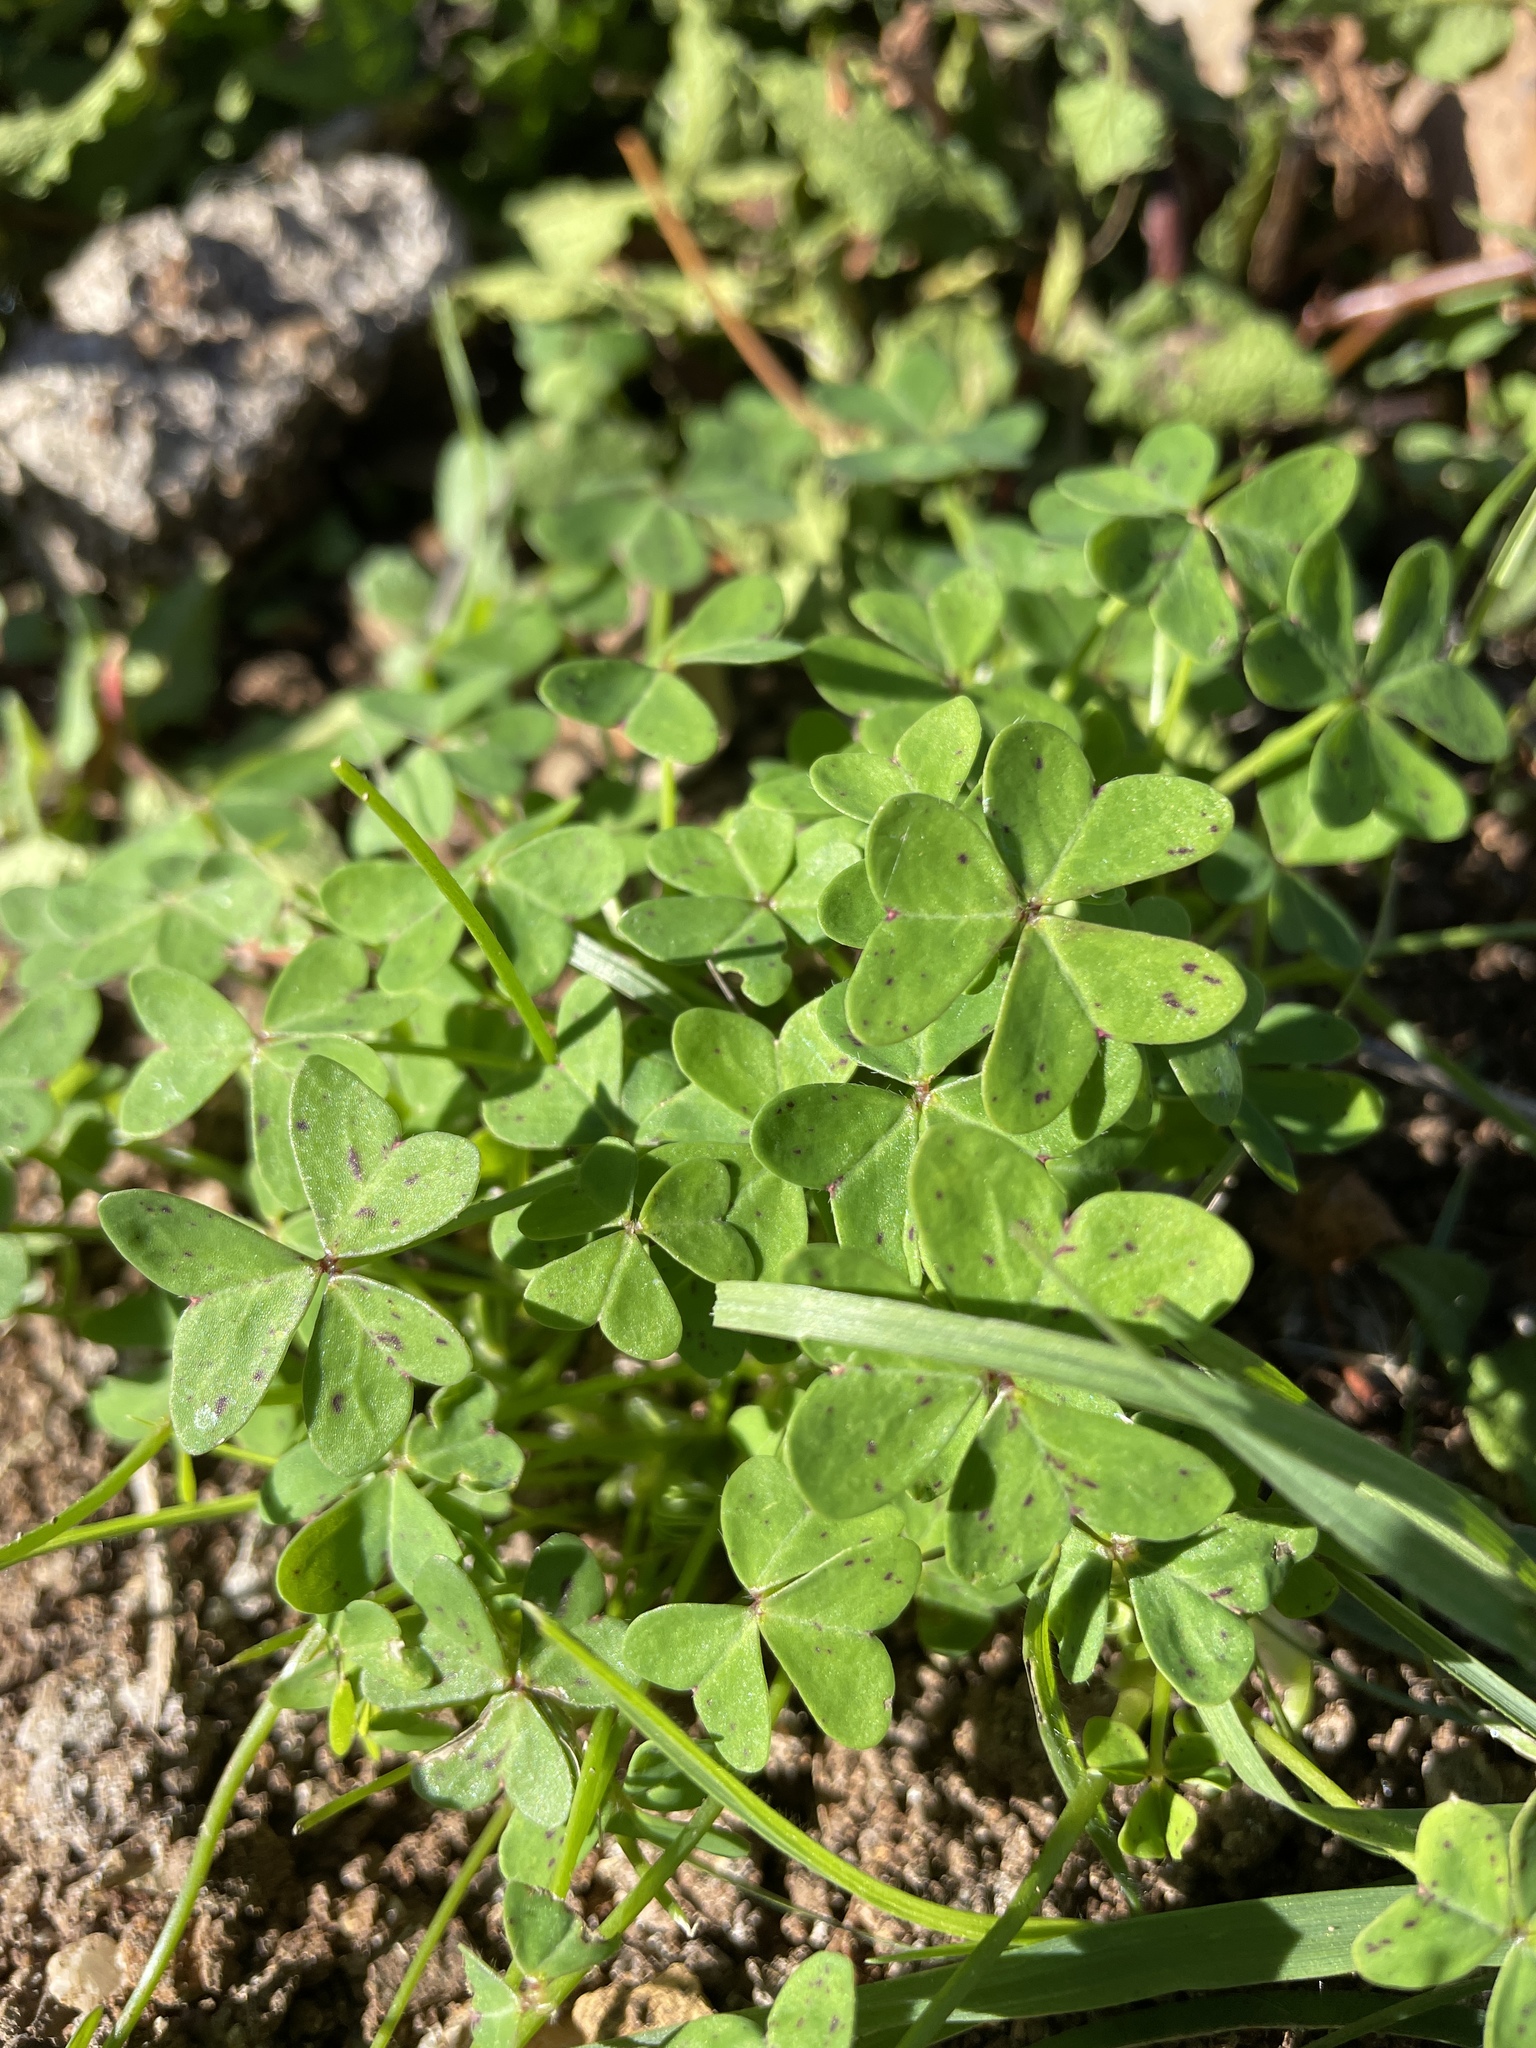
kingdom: Plantae
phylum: Tracheophyta
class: Magnoliopsida
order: Oxalidales
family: Oxalidaceae
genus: Oxalis
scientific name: Oxalis pes-caprae
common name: Bermuda-buttercup
